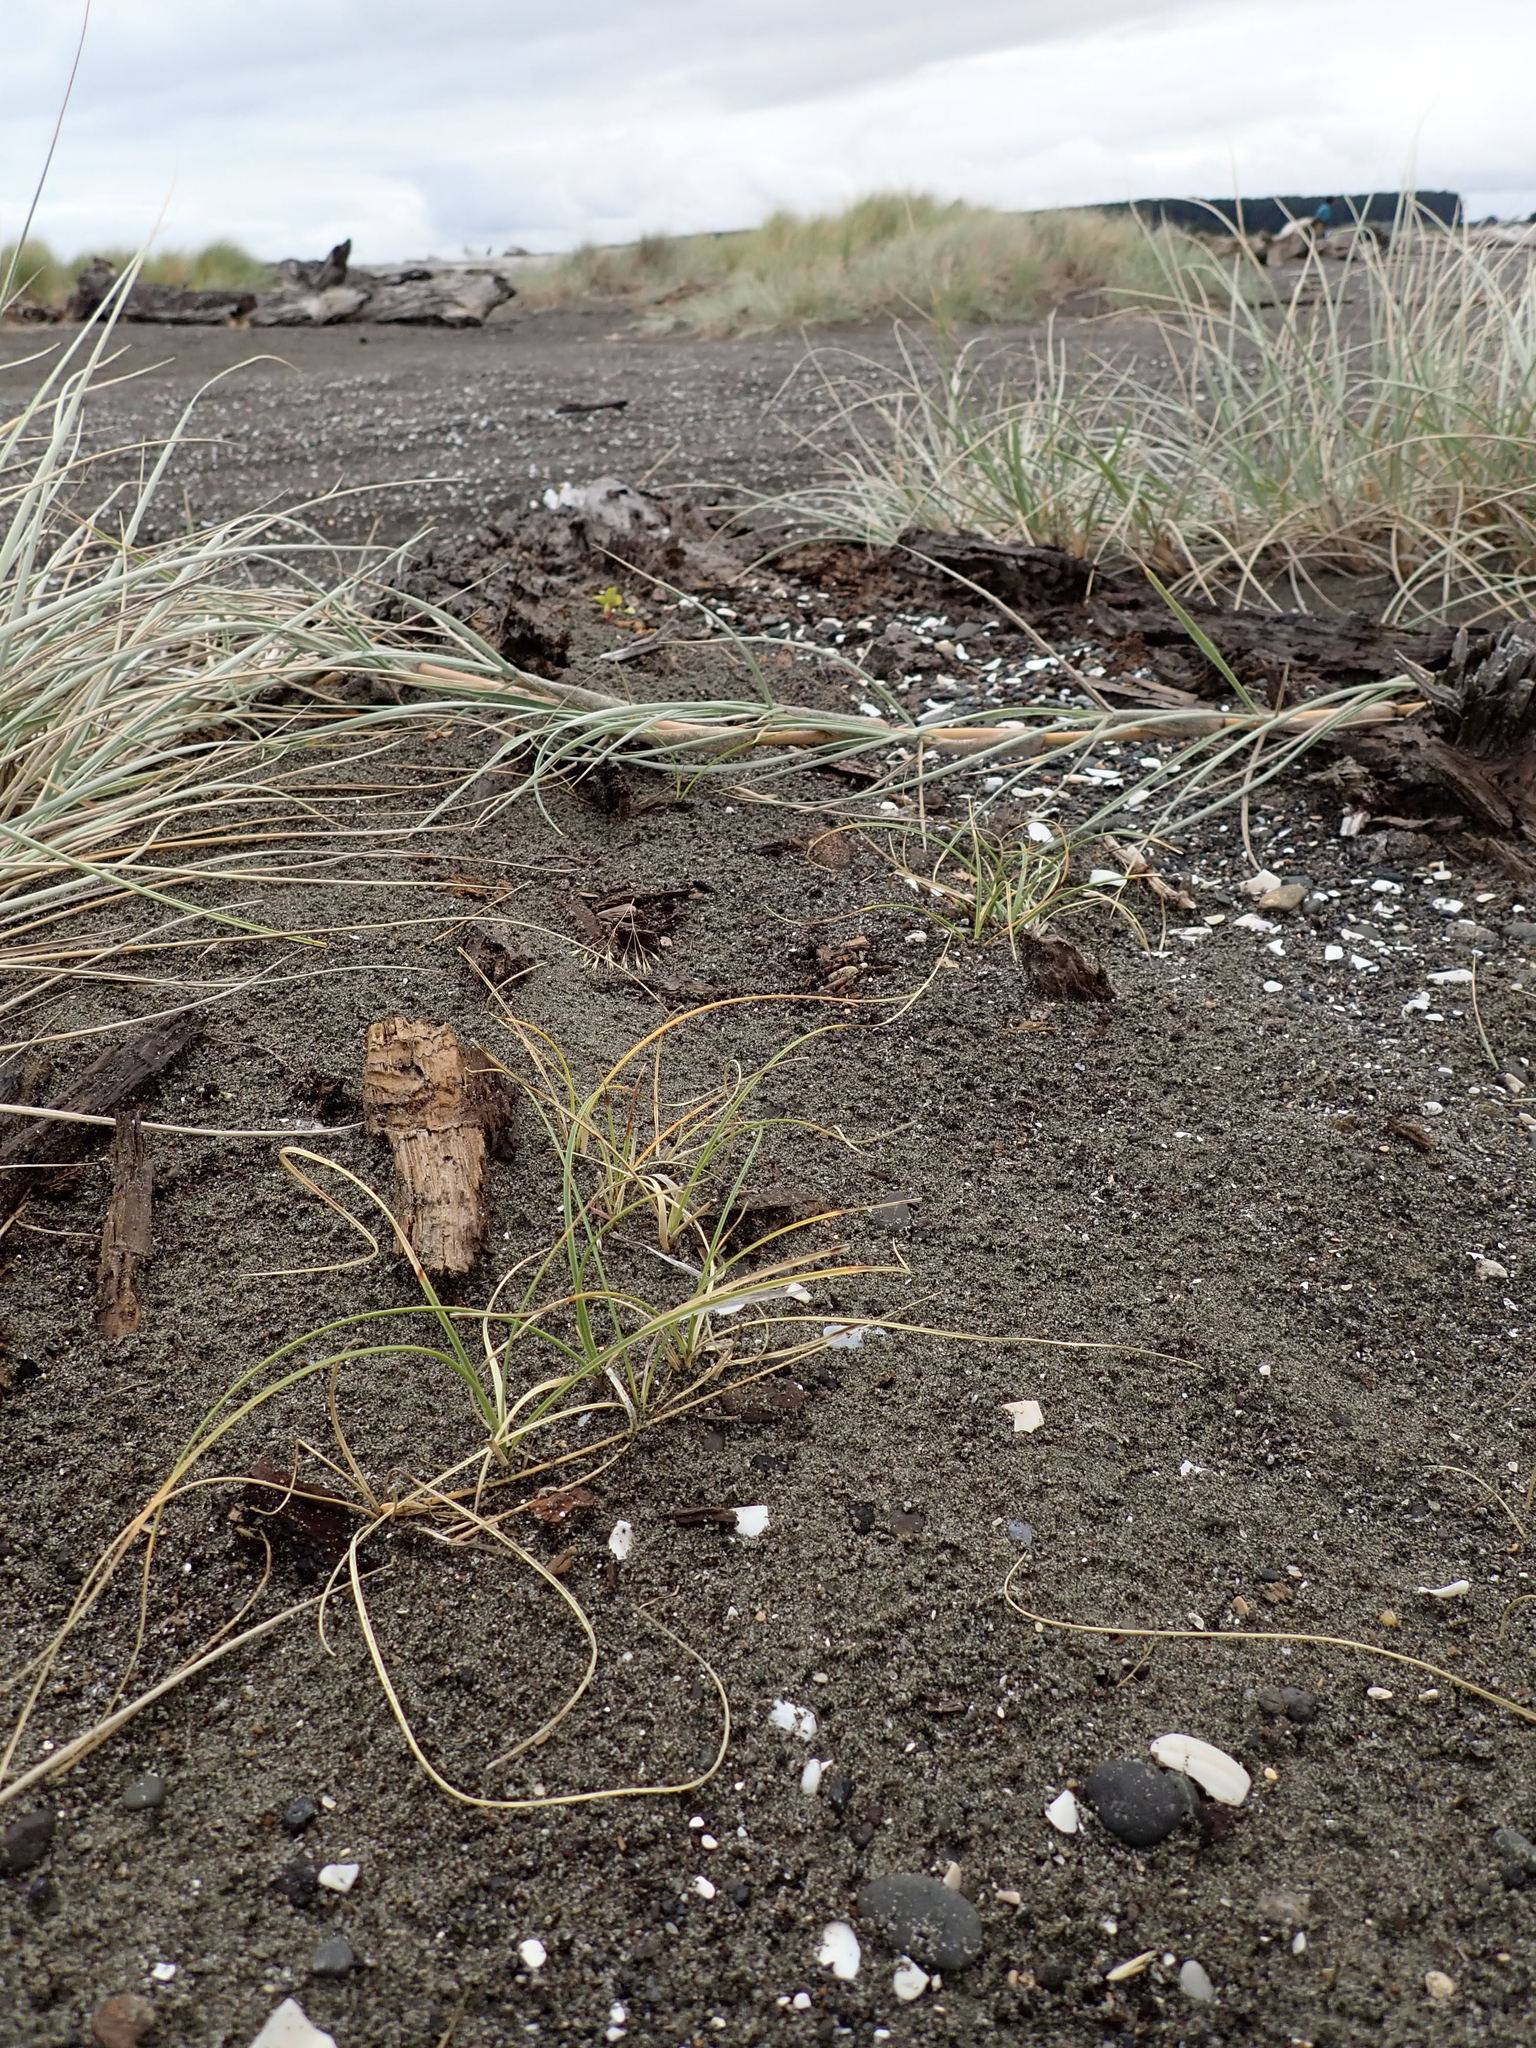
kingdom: Plantae
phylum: Tracheophyta
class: Liliopsida
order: Poales
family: Cyperaceae
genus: Carex
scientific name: Carex pumila
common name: Dwarf sedge
